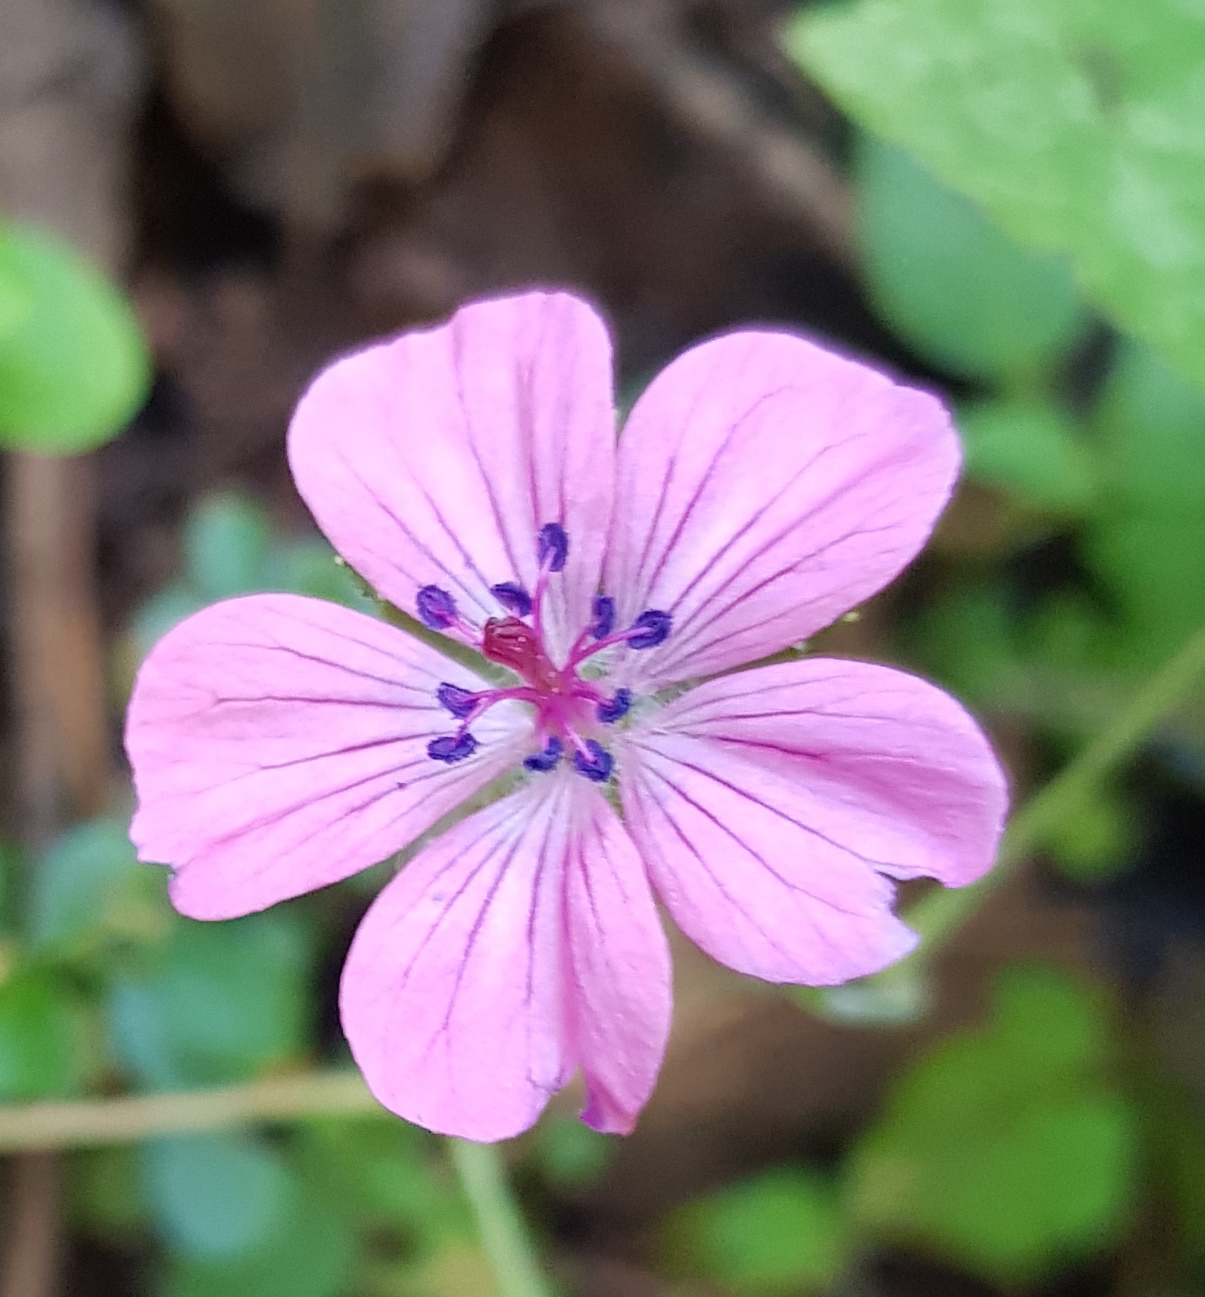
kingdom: Plantae
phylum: Tracheophyta
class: Magnoliopsida
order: Geraniales
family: Geraniaceae
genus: Geranium
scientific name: Geranium seemannii
